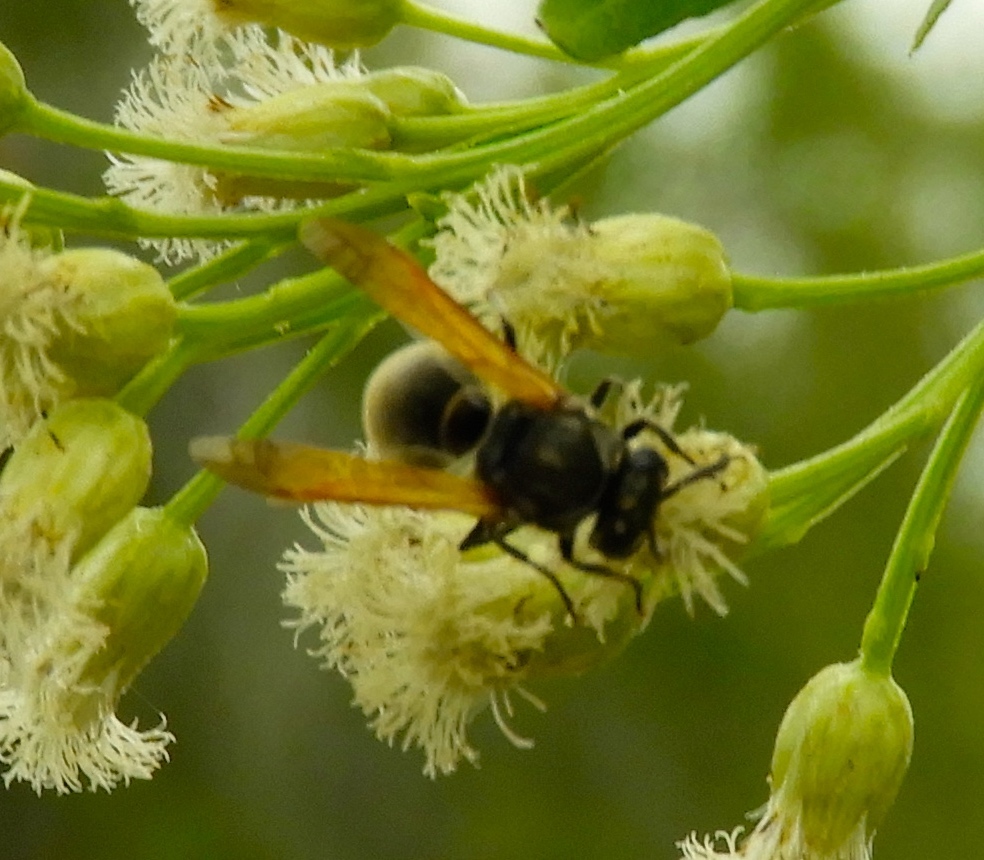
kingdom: Animalia
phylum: Arthropoda
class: Insecta
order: Hymenoptera
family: Vespidae
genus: Brachygastra
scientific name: Brachygastra mellifica
